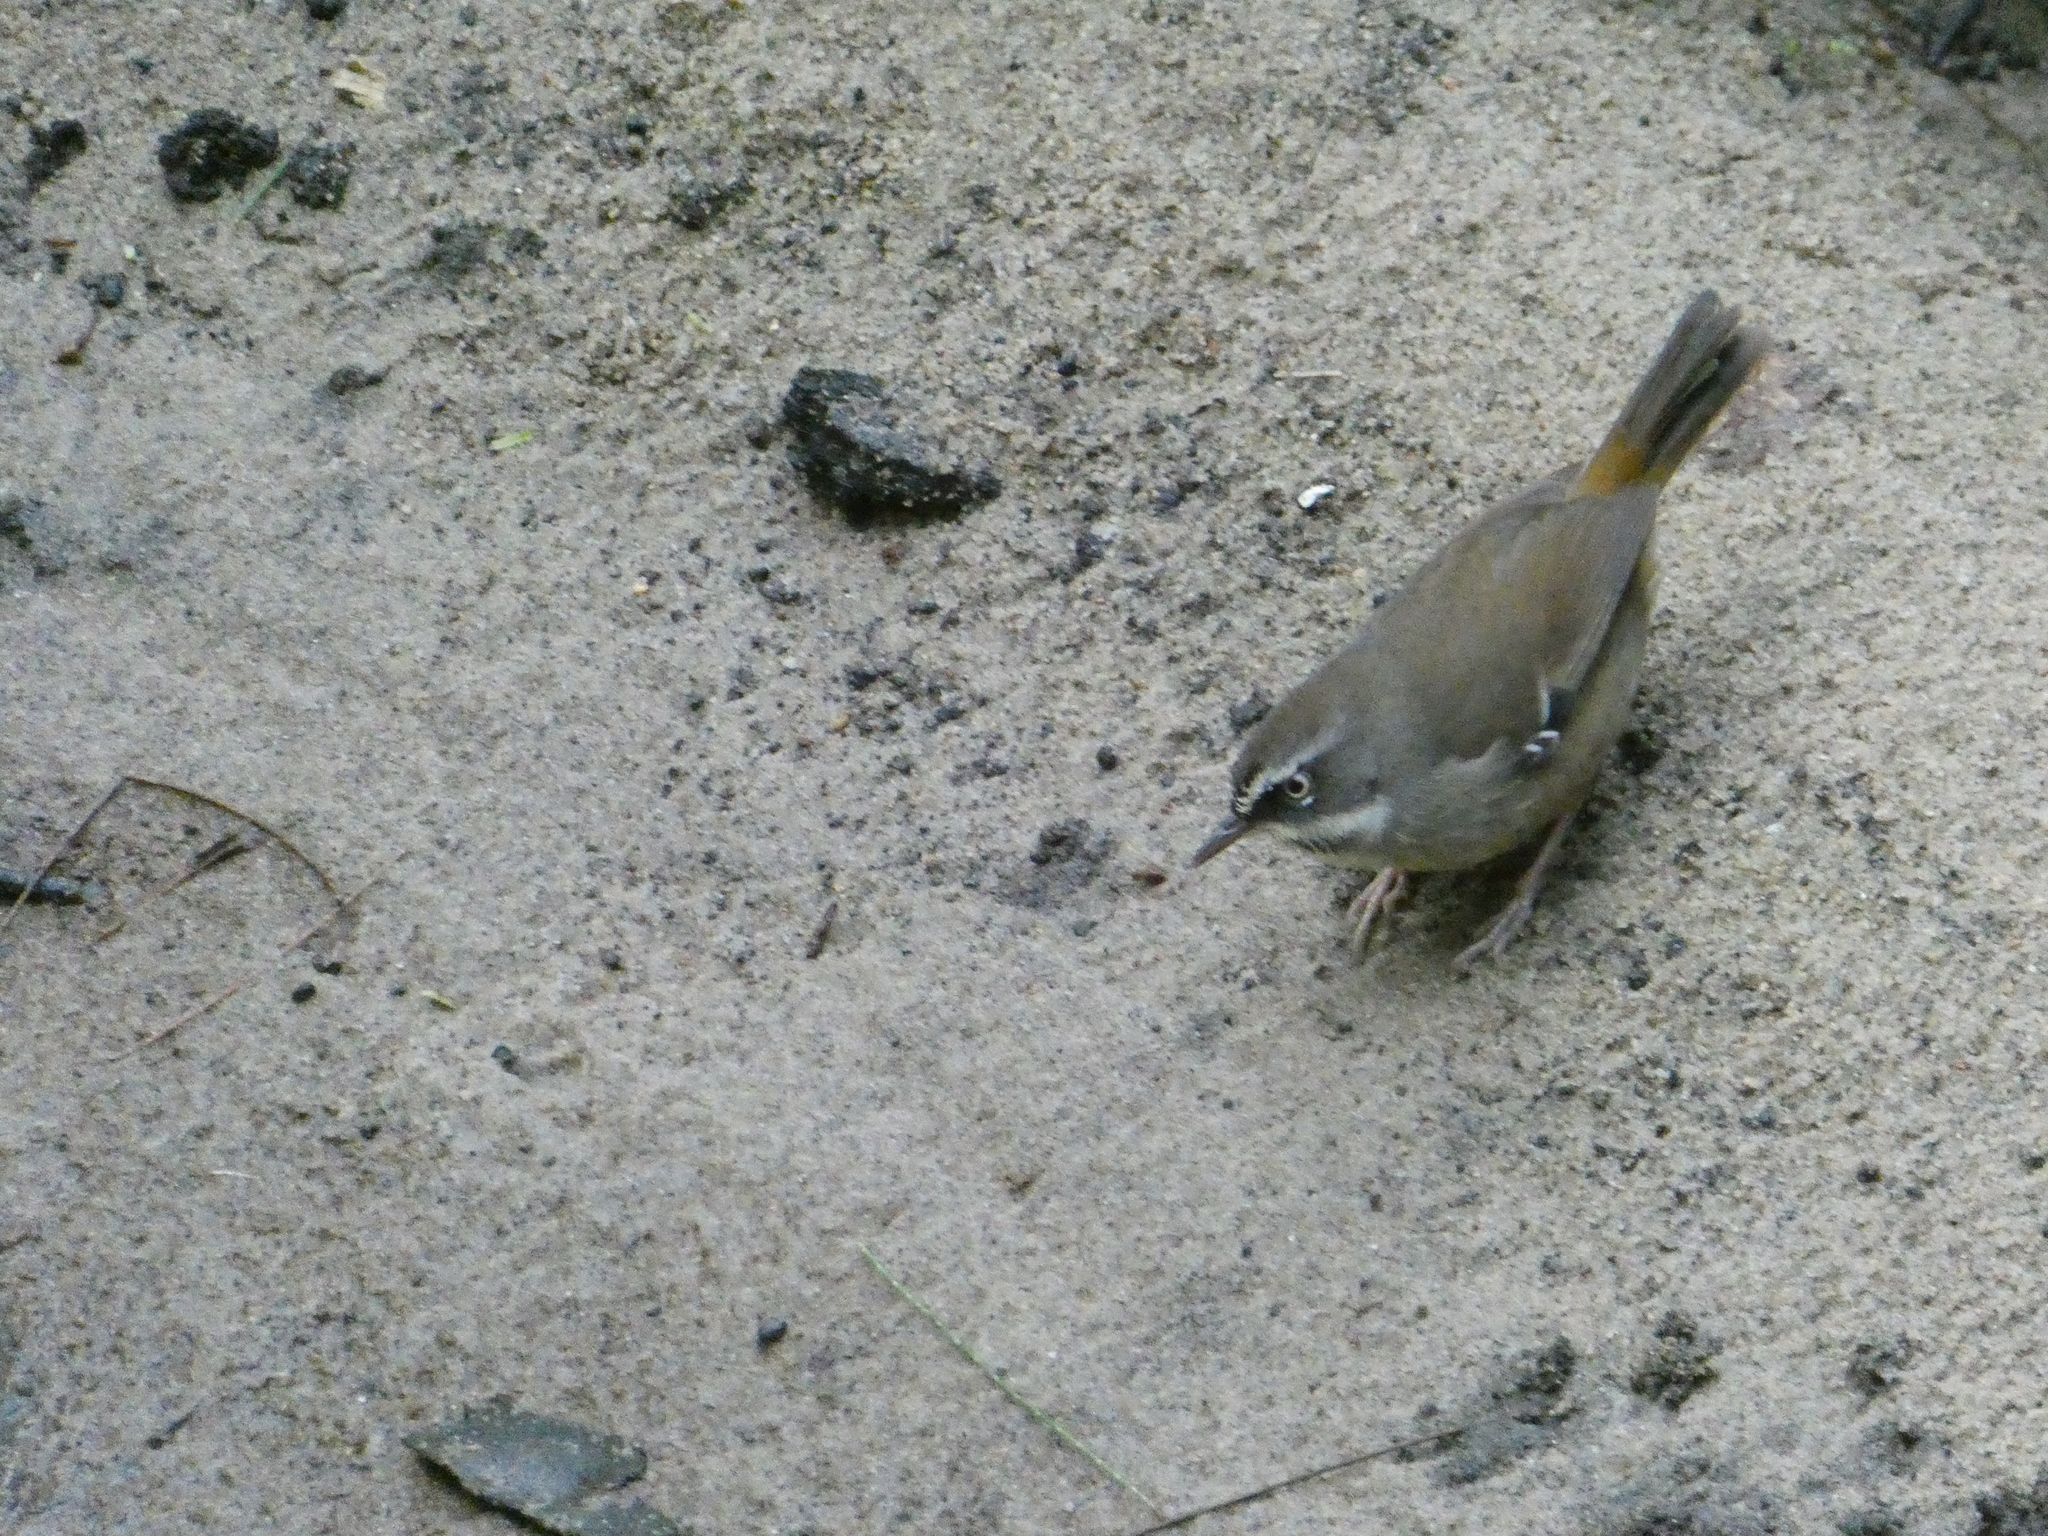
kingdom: Animalia
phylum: Chordata
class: Aves
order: Passeriformes
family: Acanthizidae
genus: Sericornis
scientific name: Sericornis frontalis
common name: White-browed scrubwren
